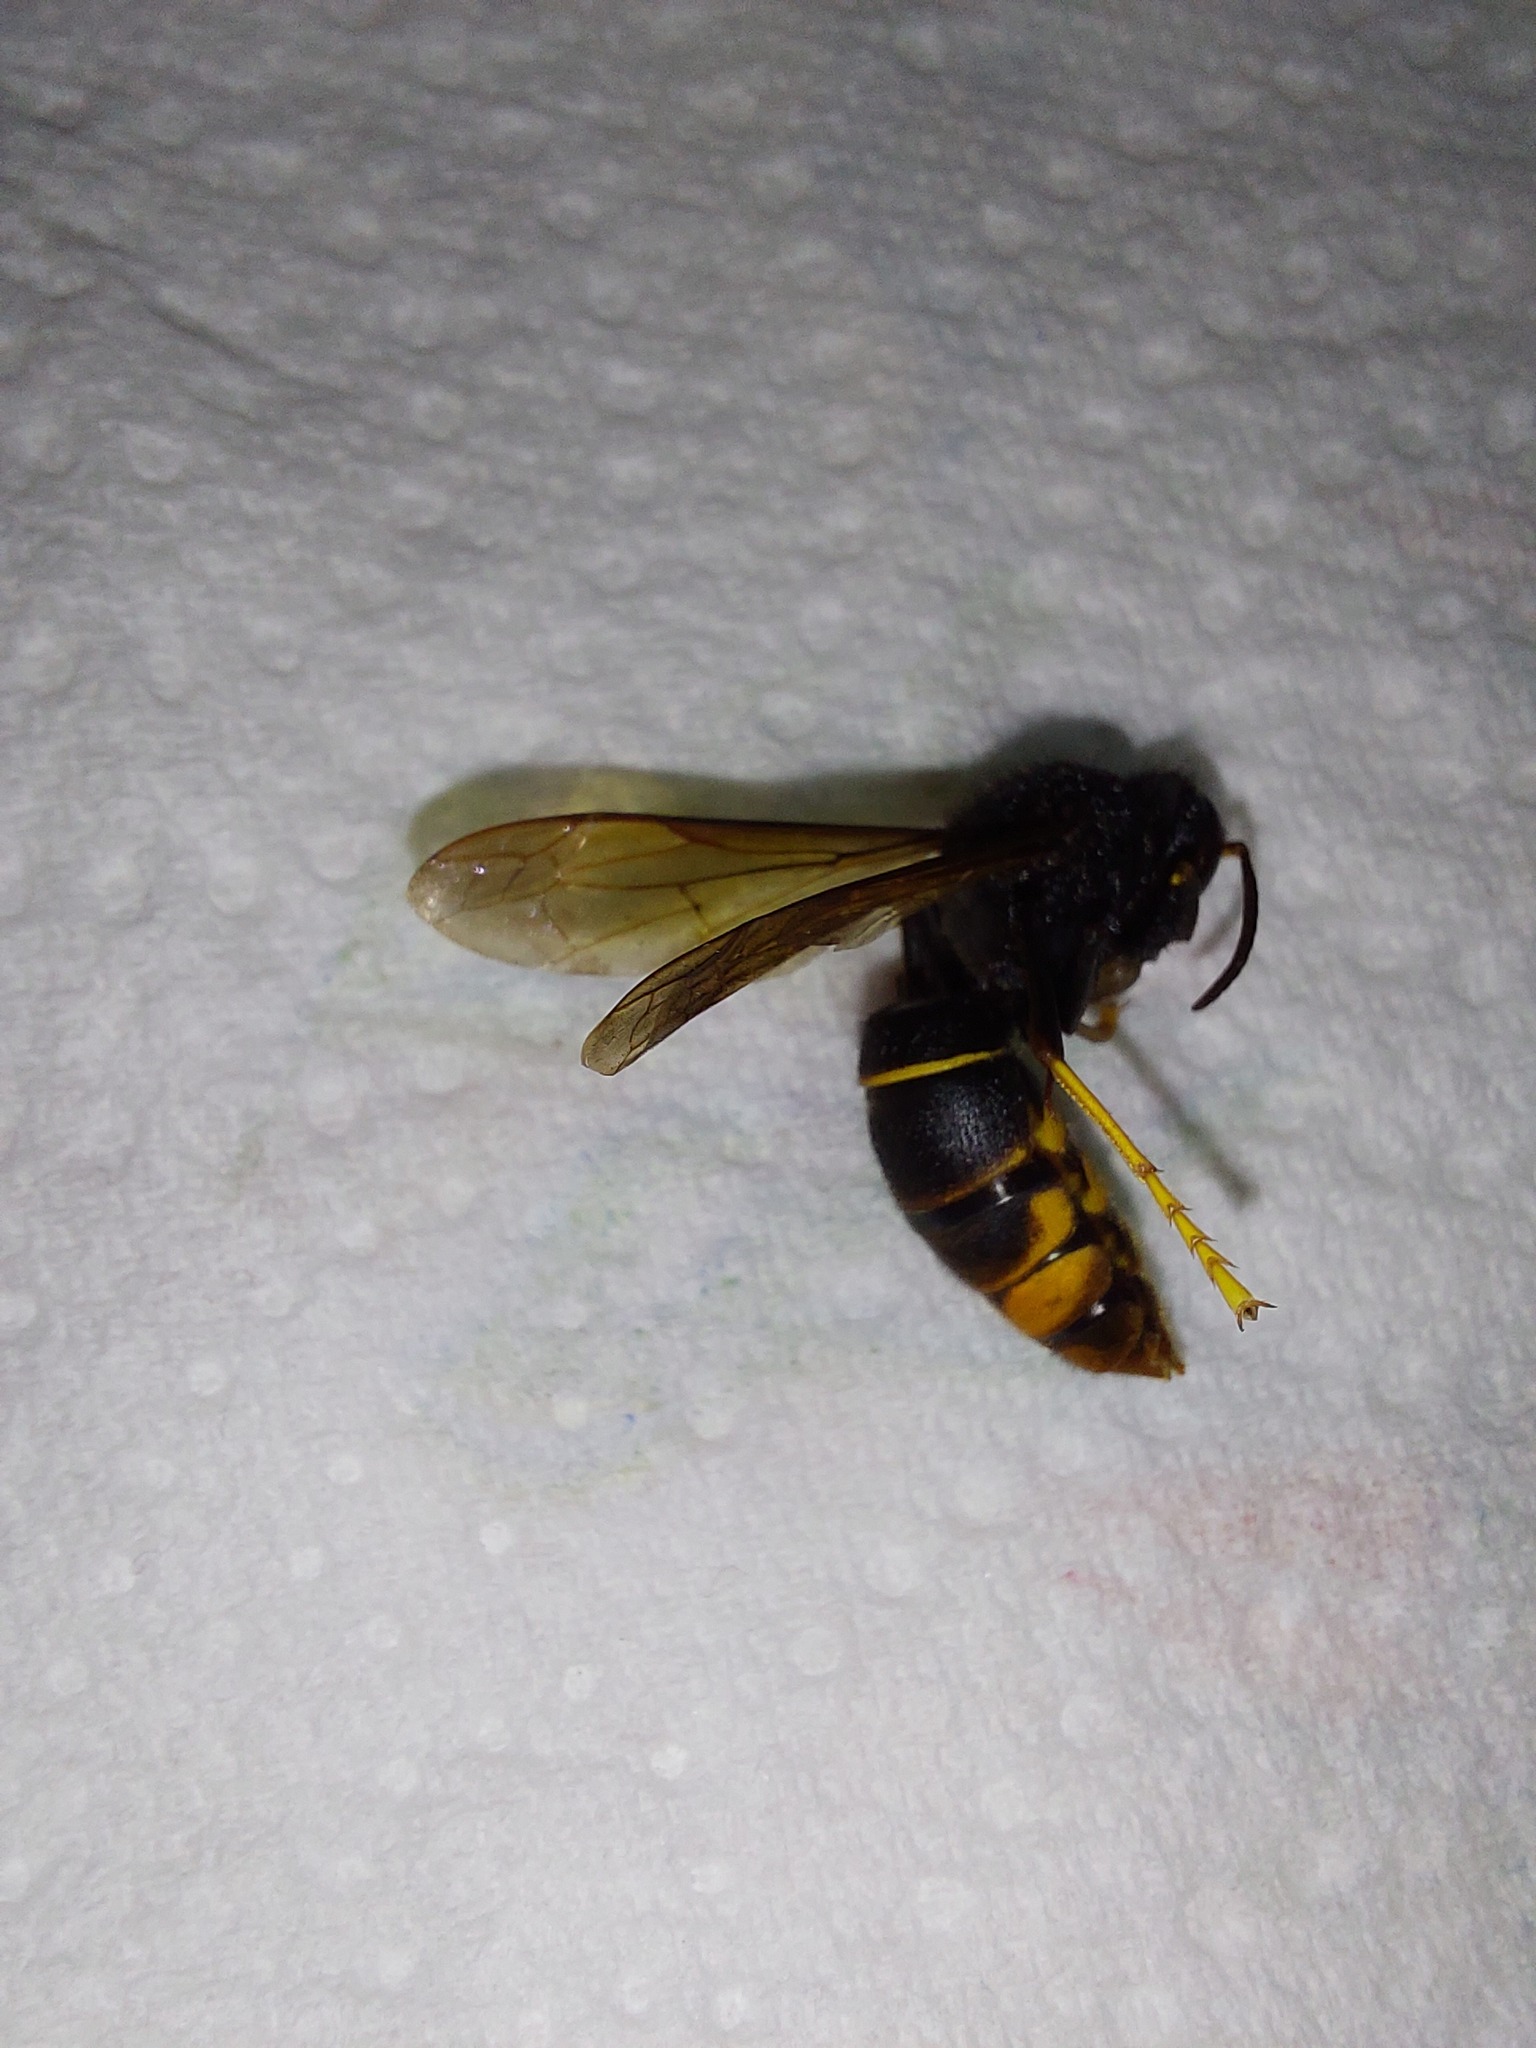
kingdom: Animalia
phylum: Arthropoda
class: Insecta
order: Hymenoptera
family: Vespidae
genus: Vespa
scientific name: Vespa velutina
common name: Asian hornet
